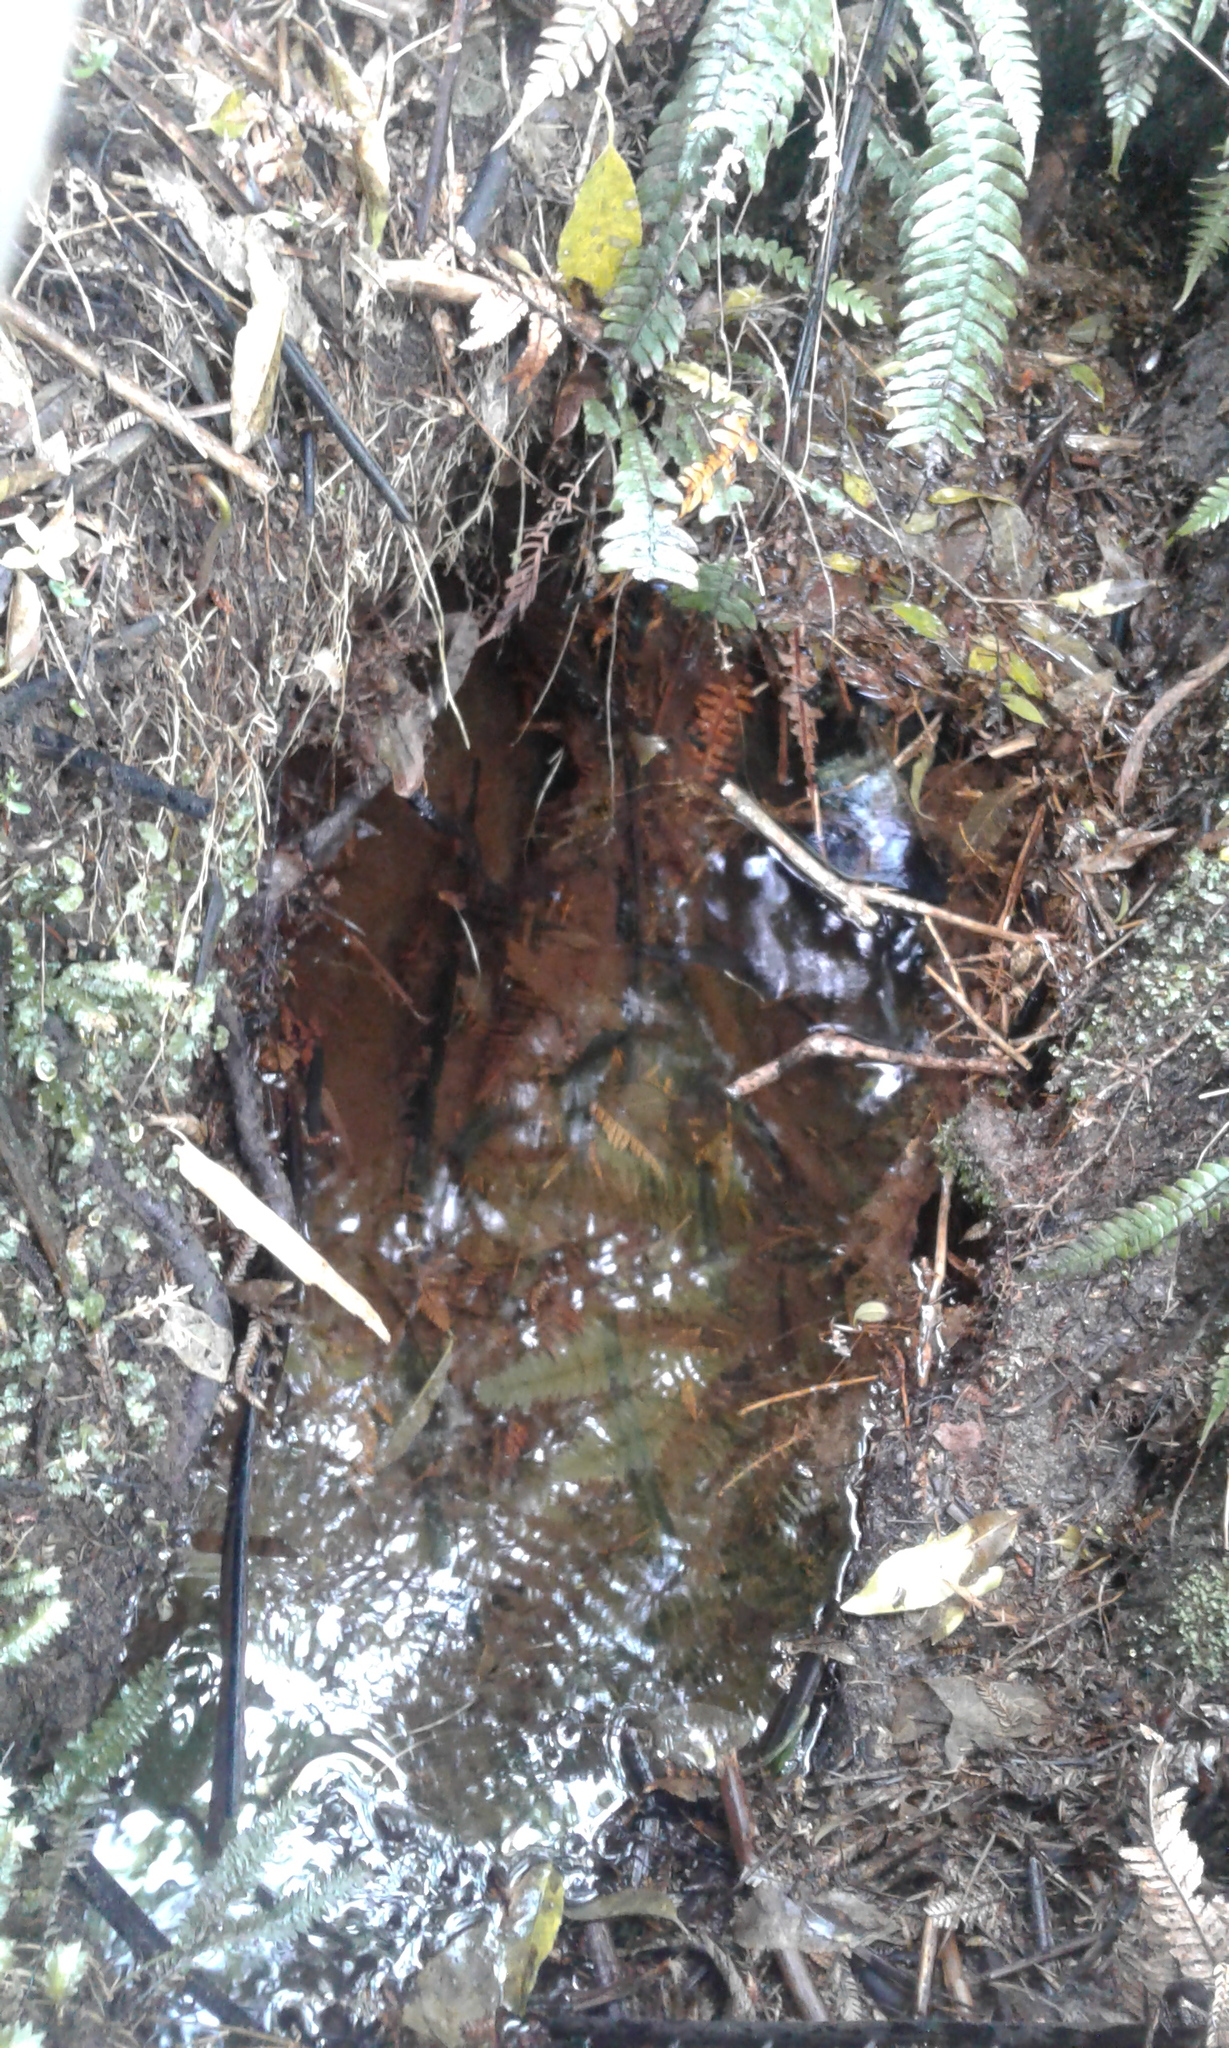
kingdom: Animalia
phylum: Chordata
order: Osmeriformes
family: Galaxiidae
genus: Galaxias
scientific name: Galaxias
